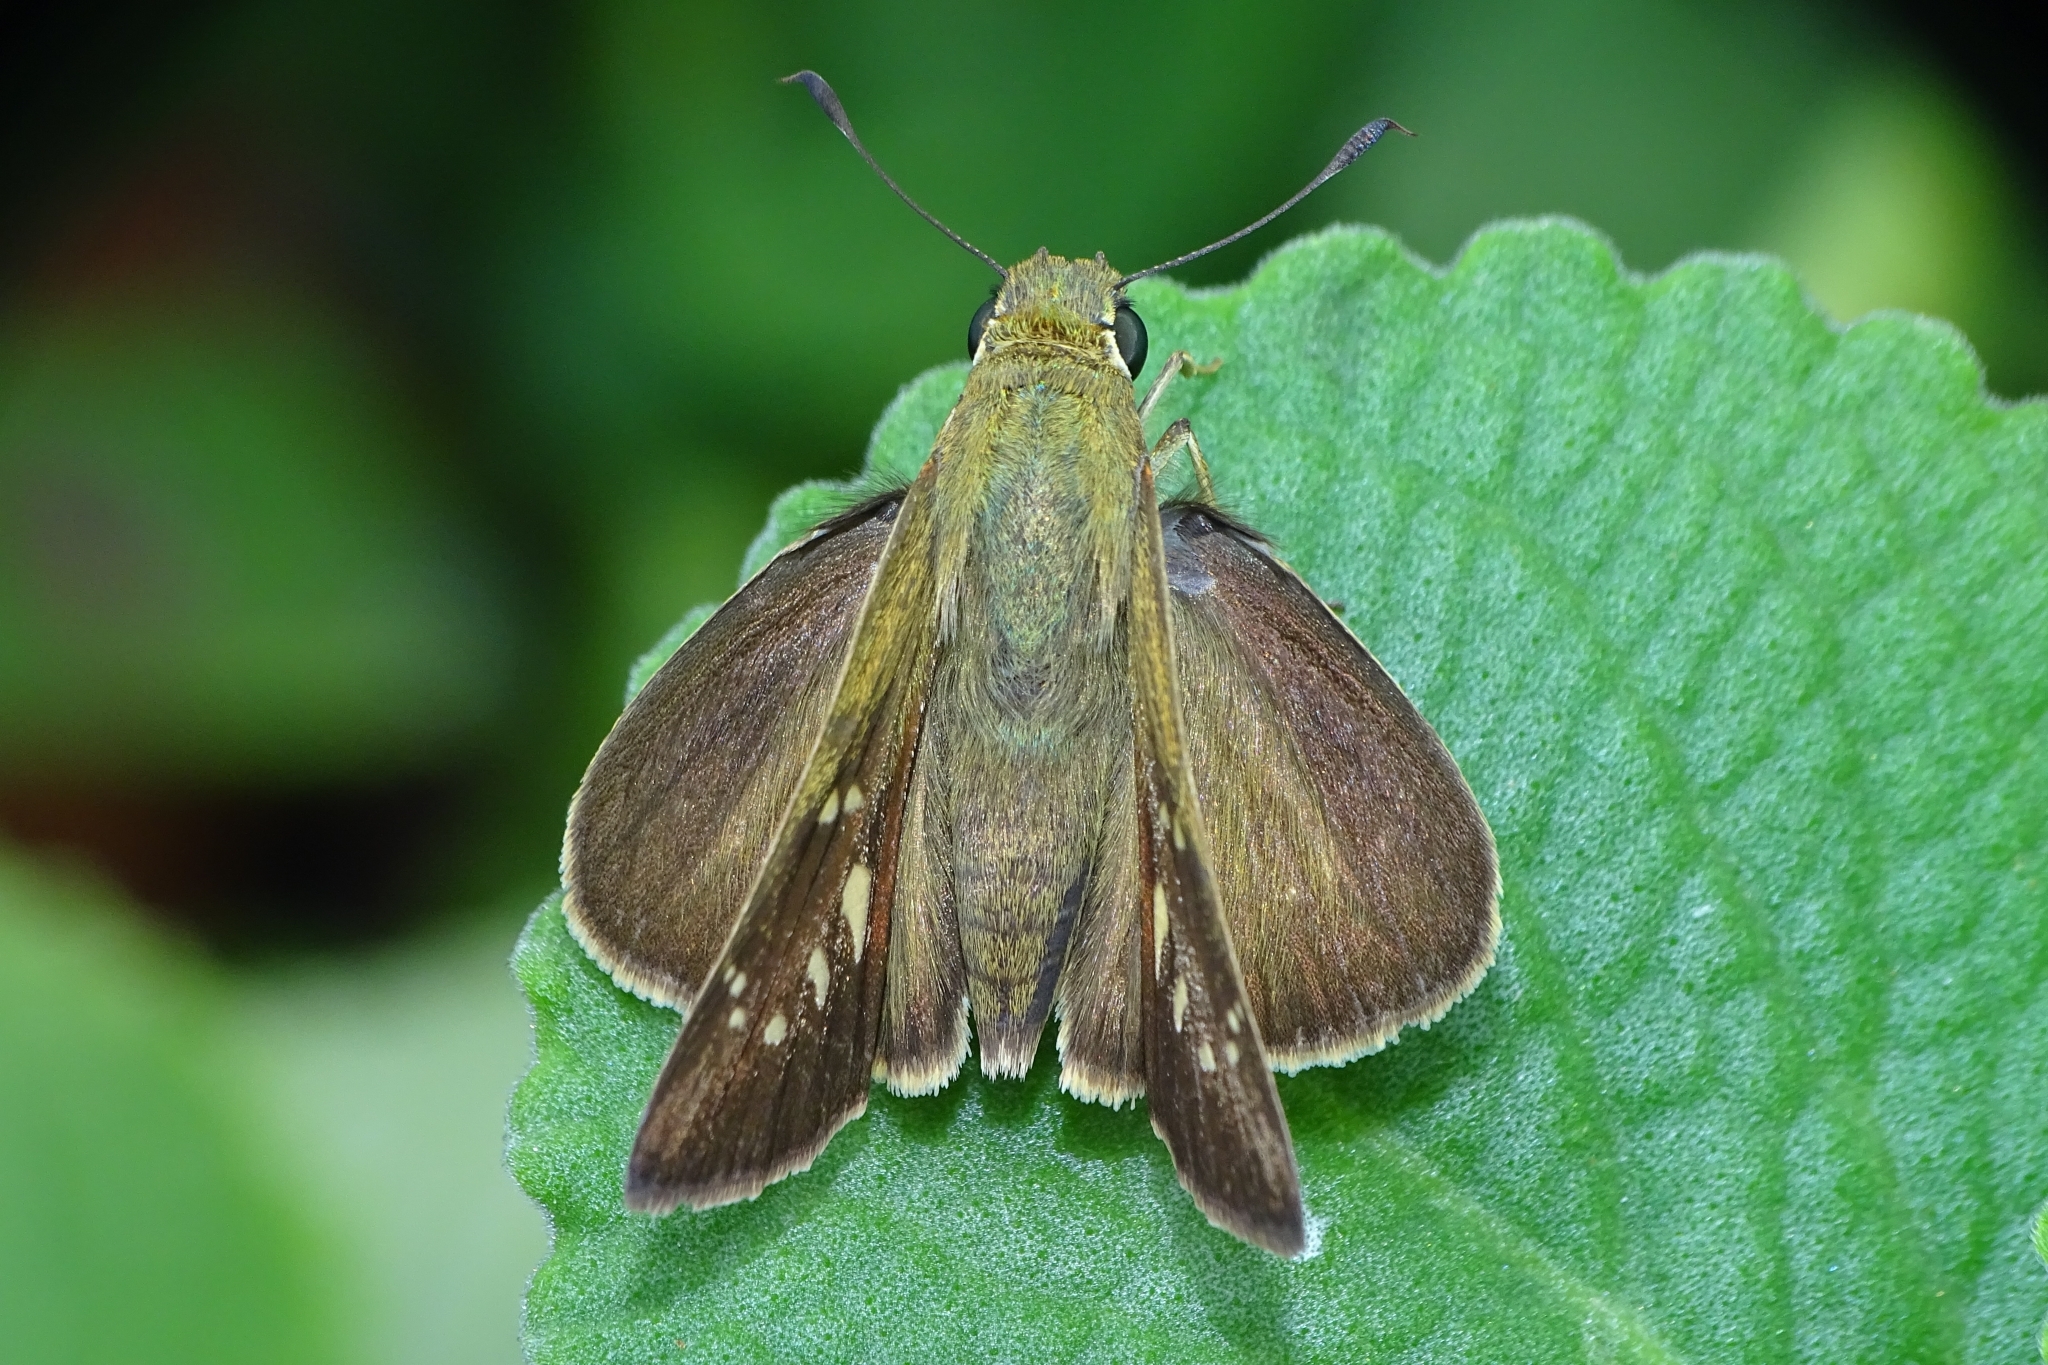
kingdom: Animalia
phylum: Arthropoda
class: Insecta
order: Lepidoptera
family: Hesperiidae
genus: Pelopidas
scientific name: Pelopidas mathias
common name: Black-branded swift
